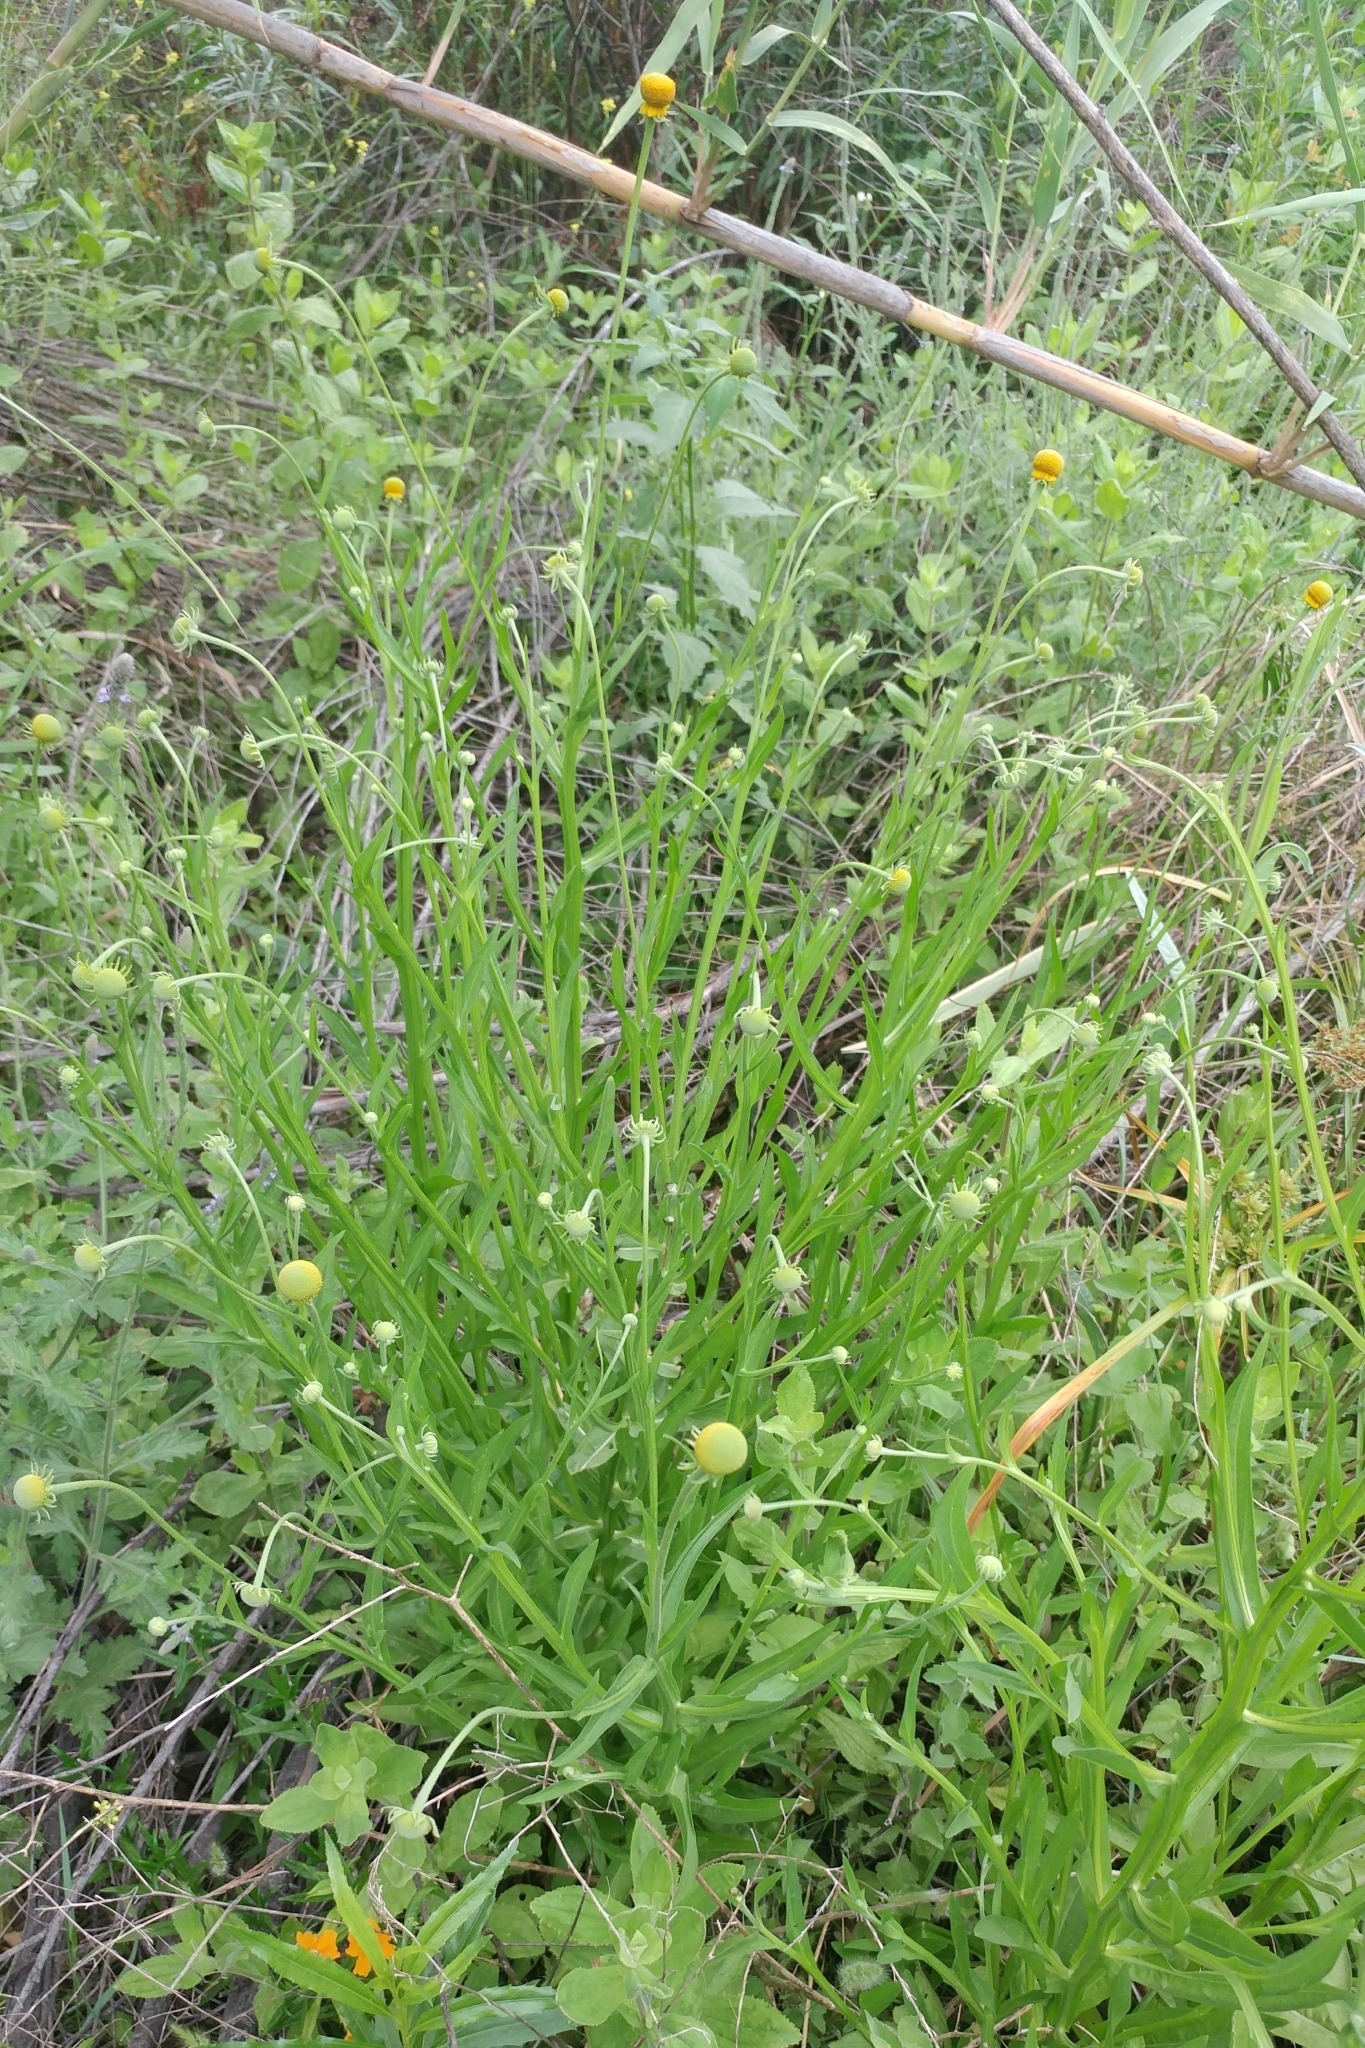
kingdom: Plantae
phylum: Tracheophyta
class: Magnoliopsida
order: Asterales
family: Asteraceae
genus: Helenium
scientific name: Helenium puberulum
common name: Sneezewort
